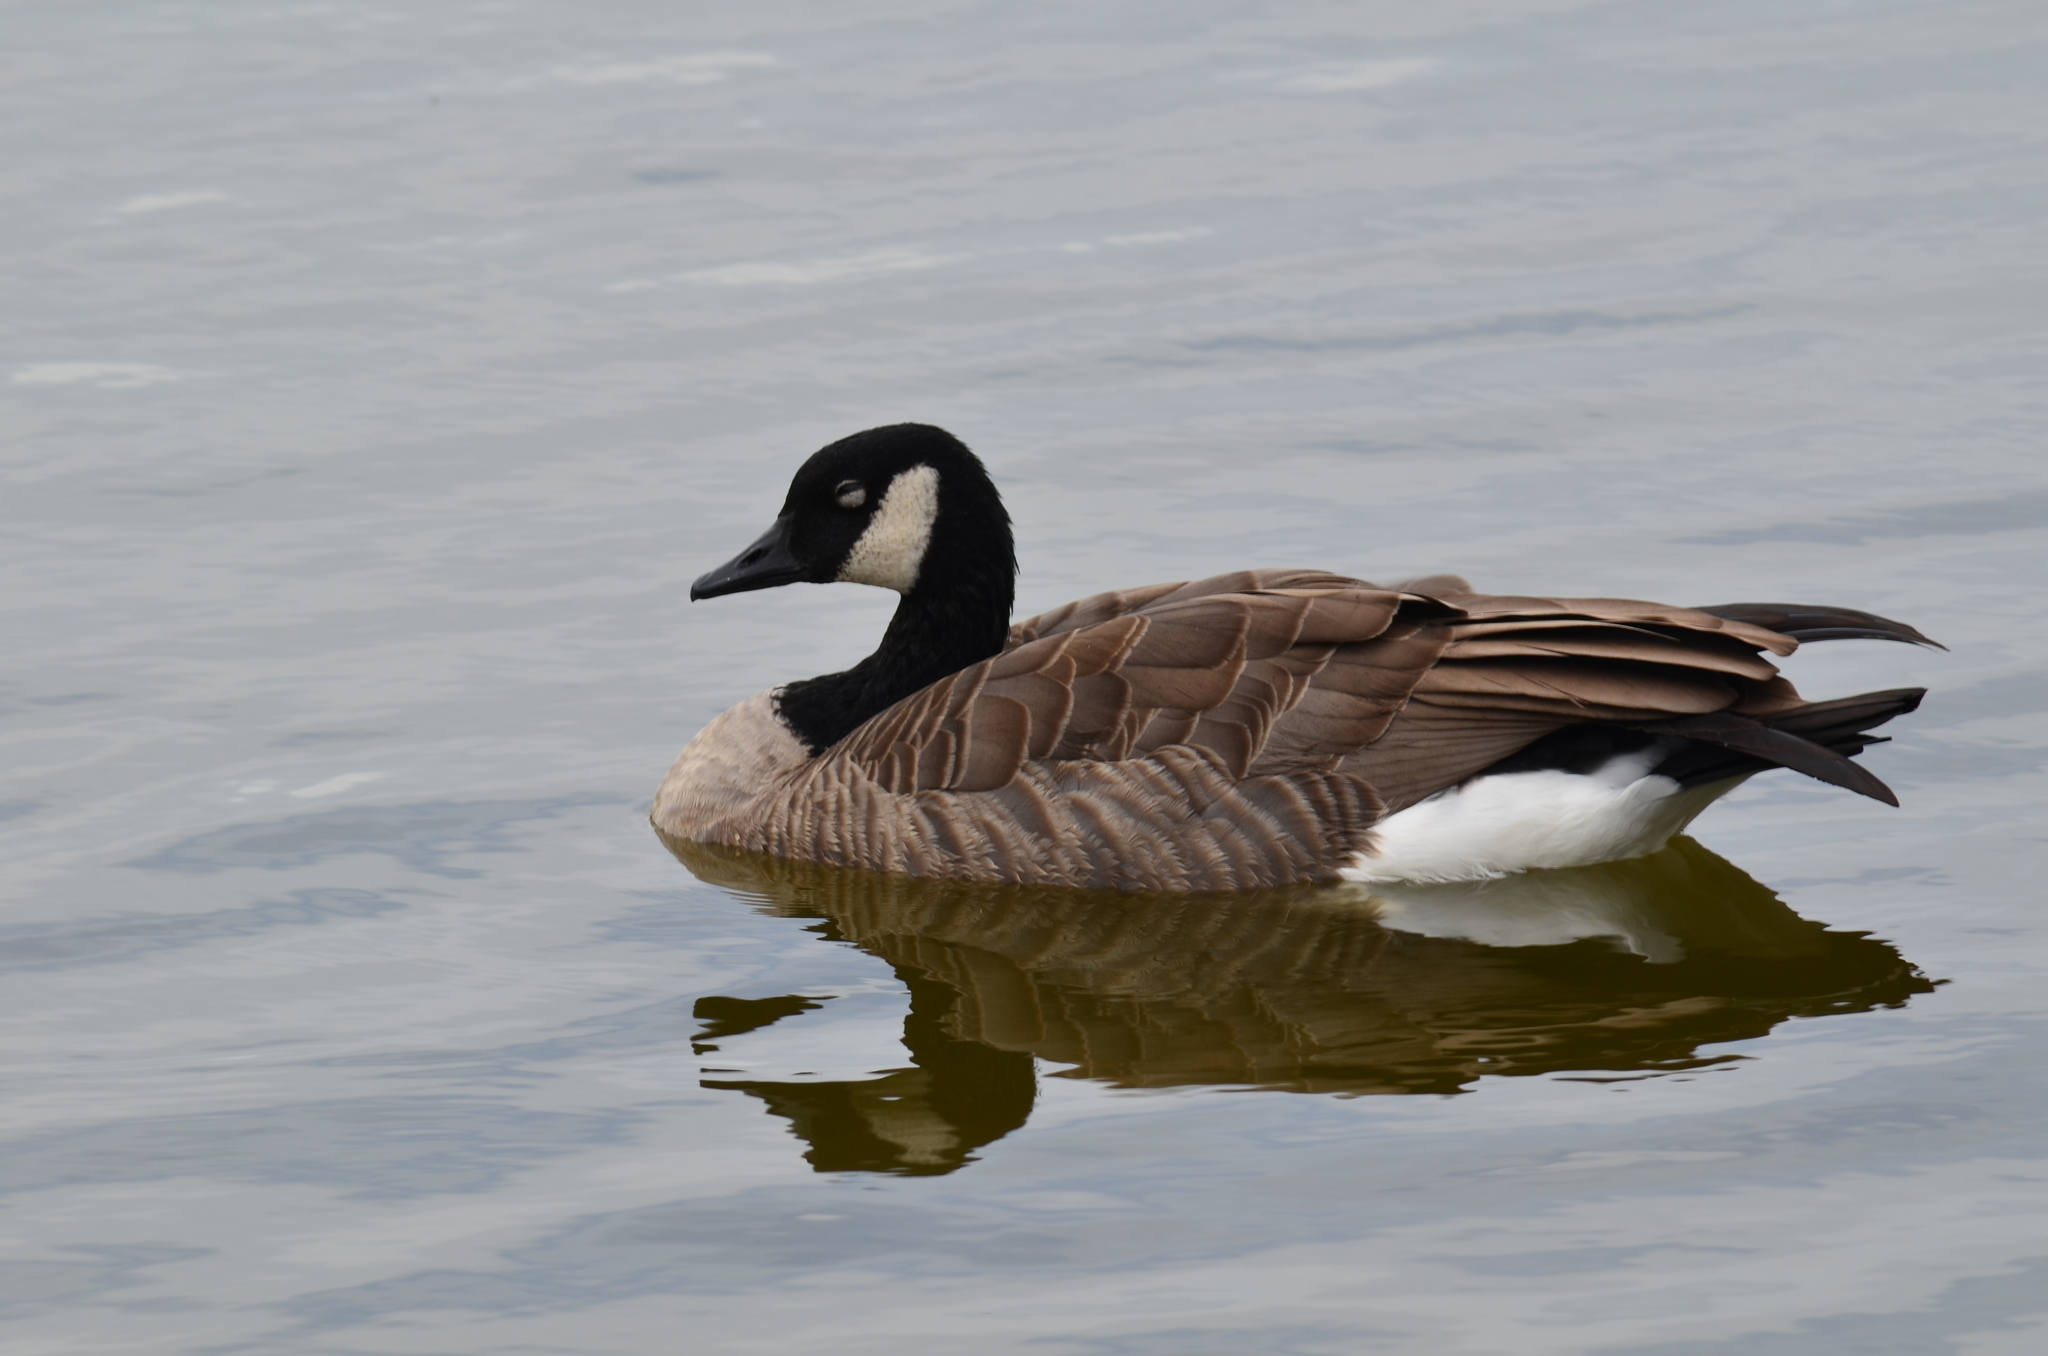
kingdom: Animalia
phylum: Chordata
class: Aves
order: Anseriformes
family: Anatidae
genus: Branta
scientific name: Branta canadensis
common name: Canada goose
